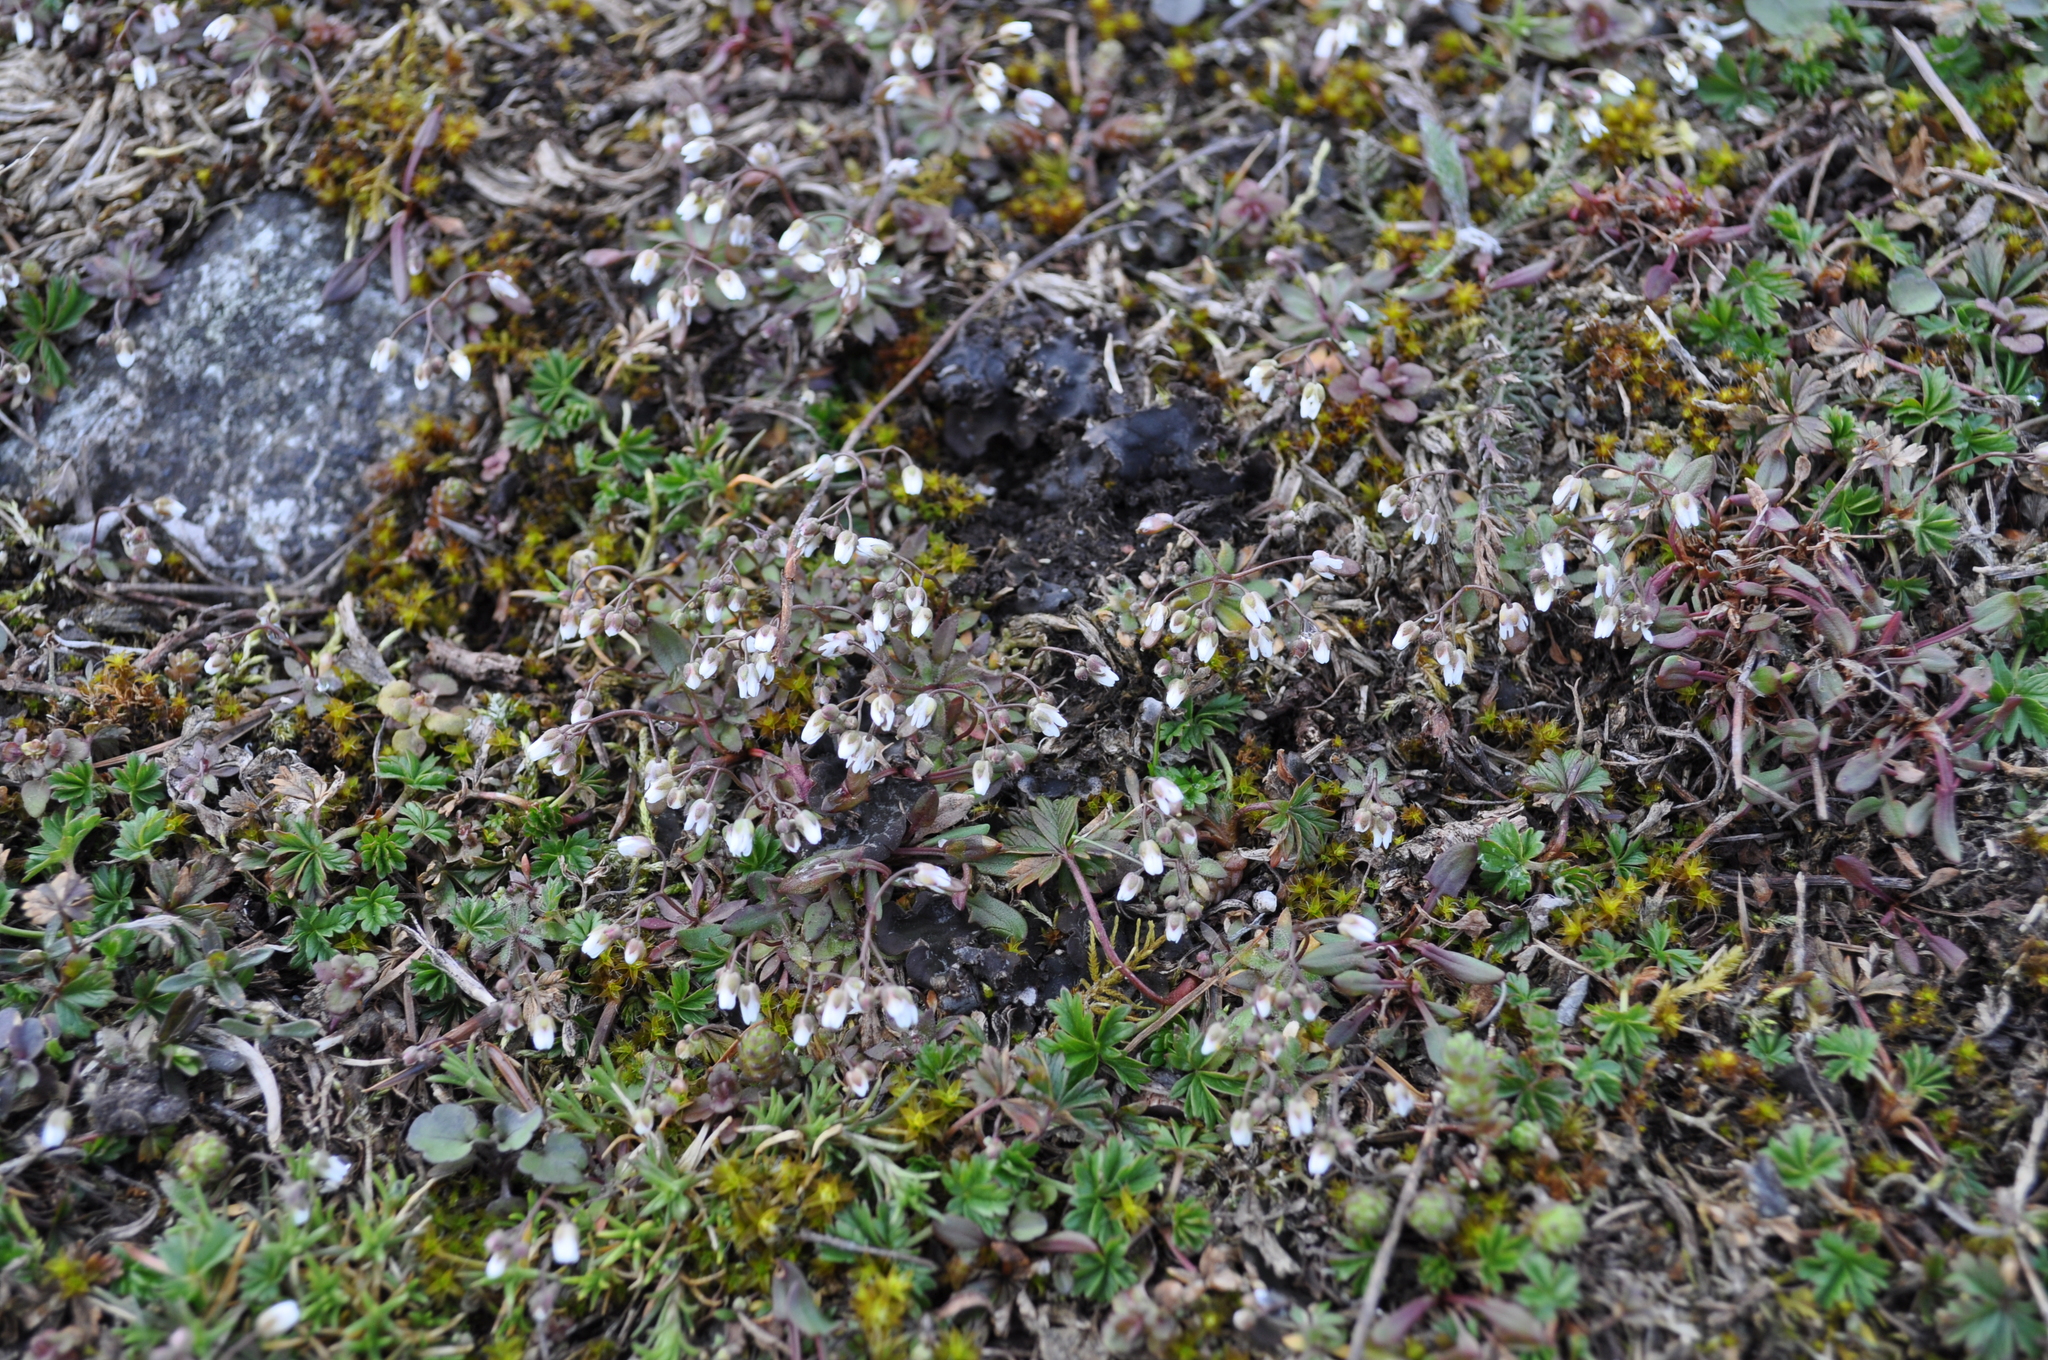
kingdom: Plantae
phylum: Tracheophyta
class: Magnoliopsida
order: Brassicales
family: Brassicaceae
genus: Draba
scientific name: Draba verna
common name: Spring draba
